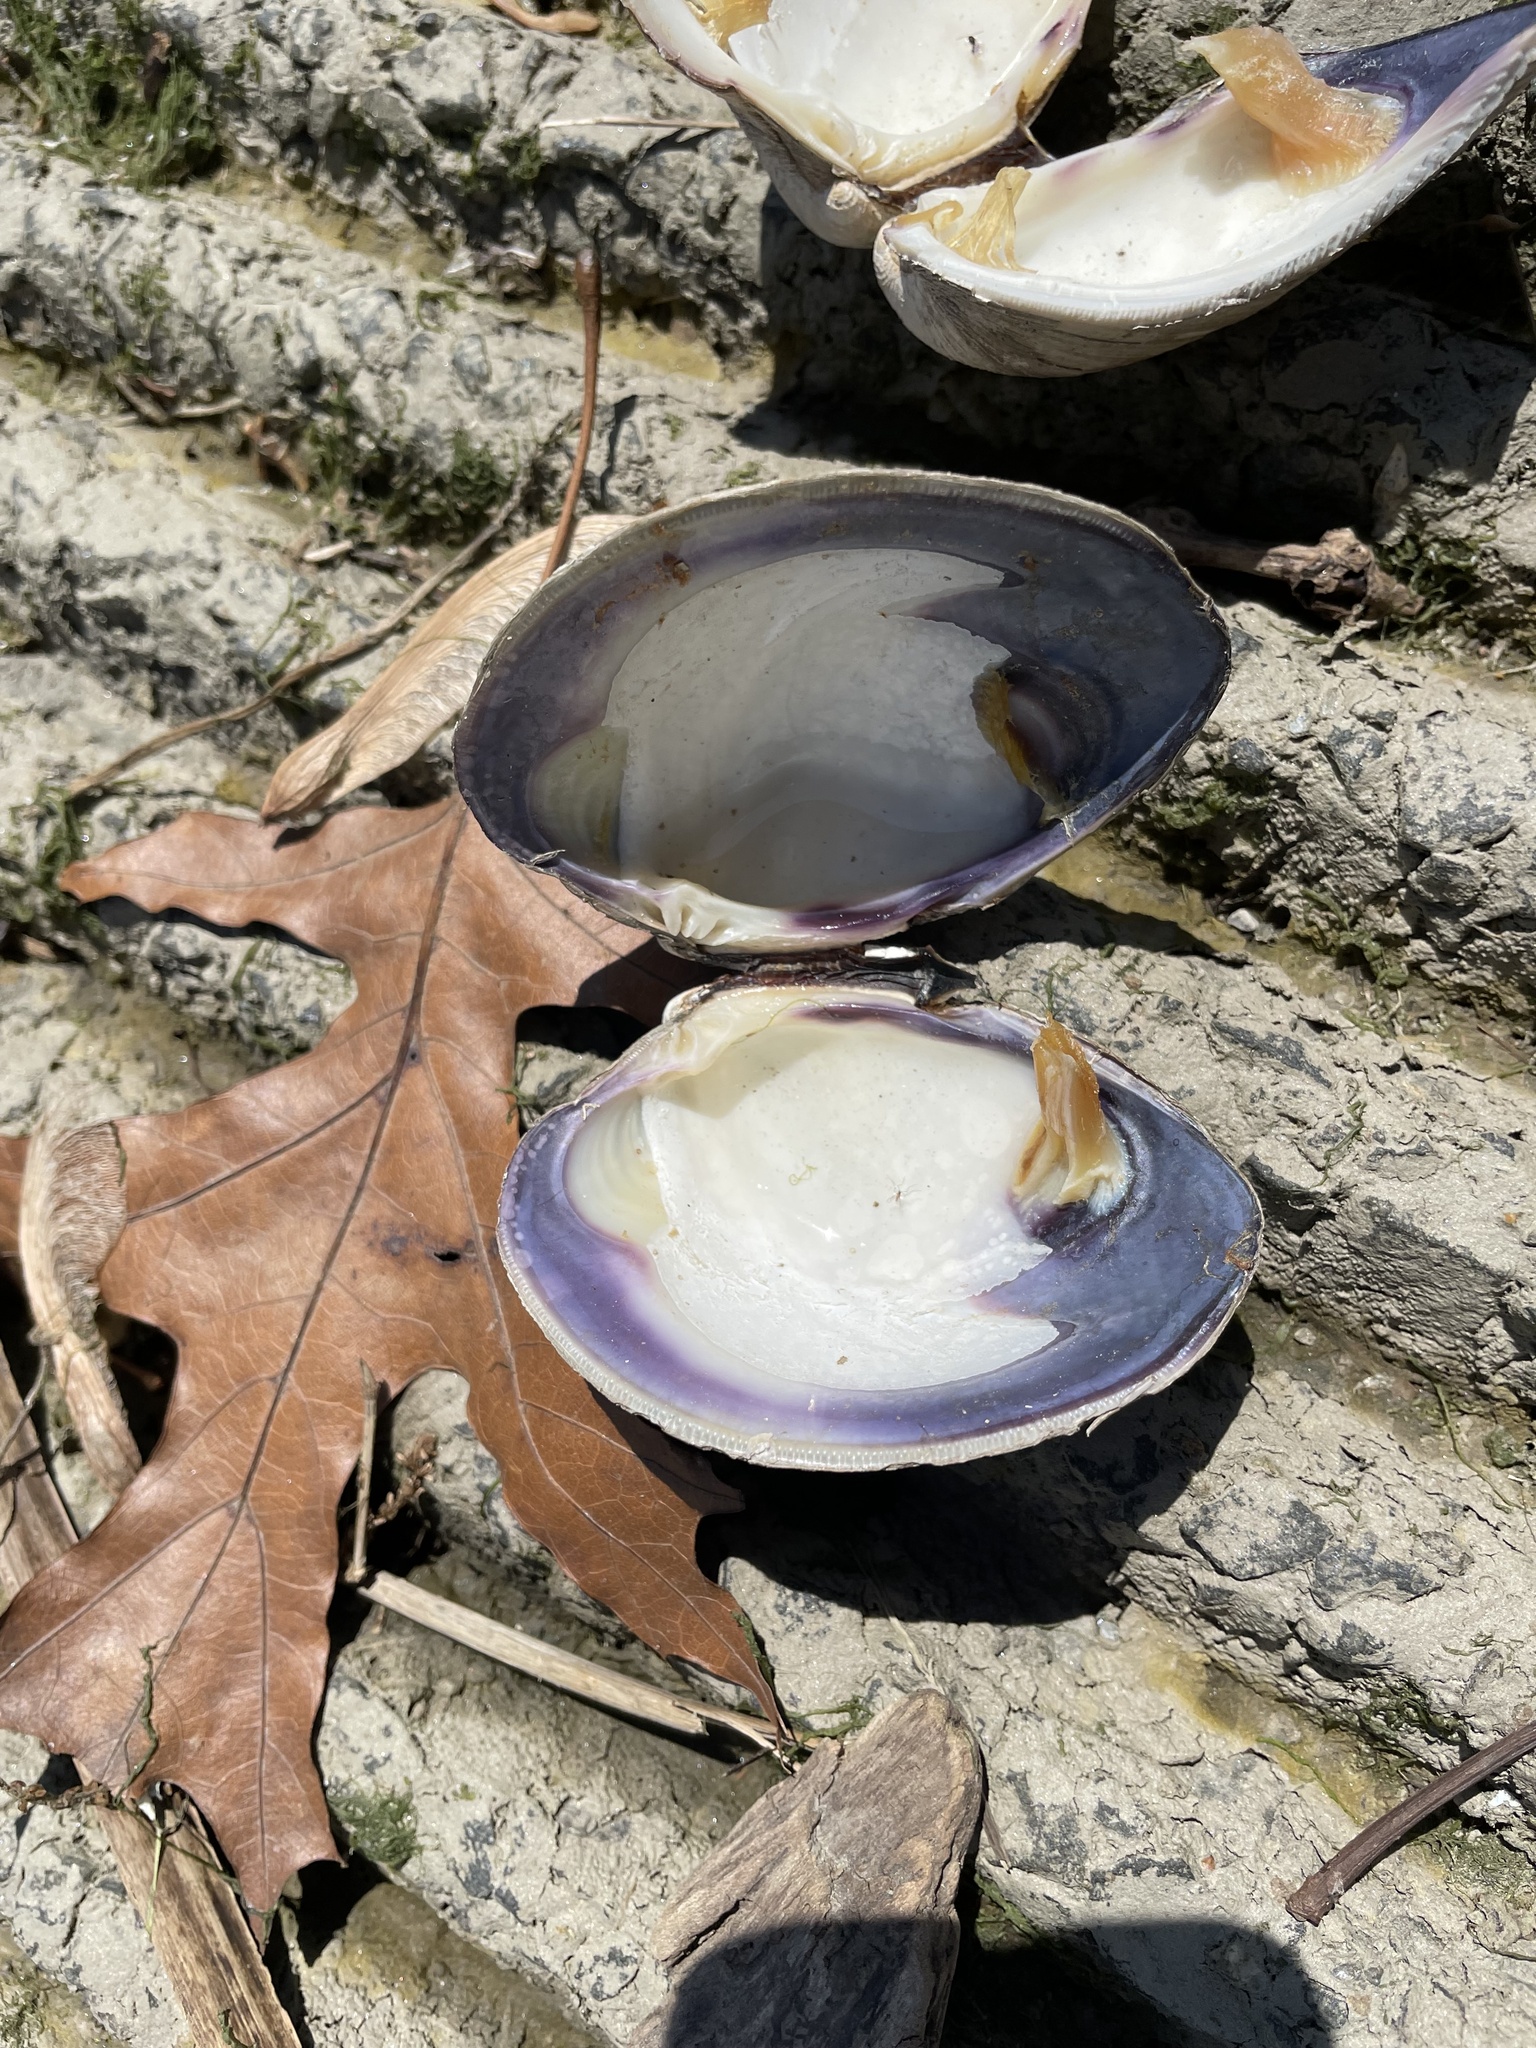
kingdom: Animalia
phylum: Mollusca
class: Bivalvia
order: Venerida
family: Veneridae
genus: Mercenaria
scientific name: Mercenaria mercenaria
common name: American hard-shelled clam
